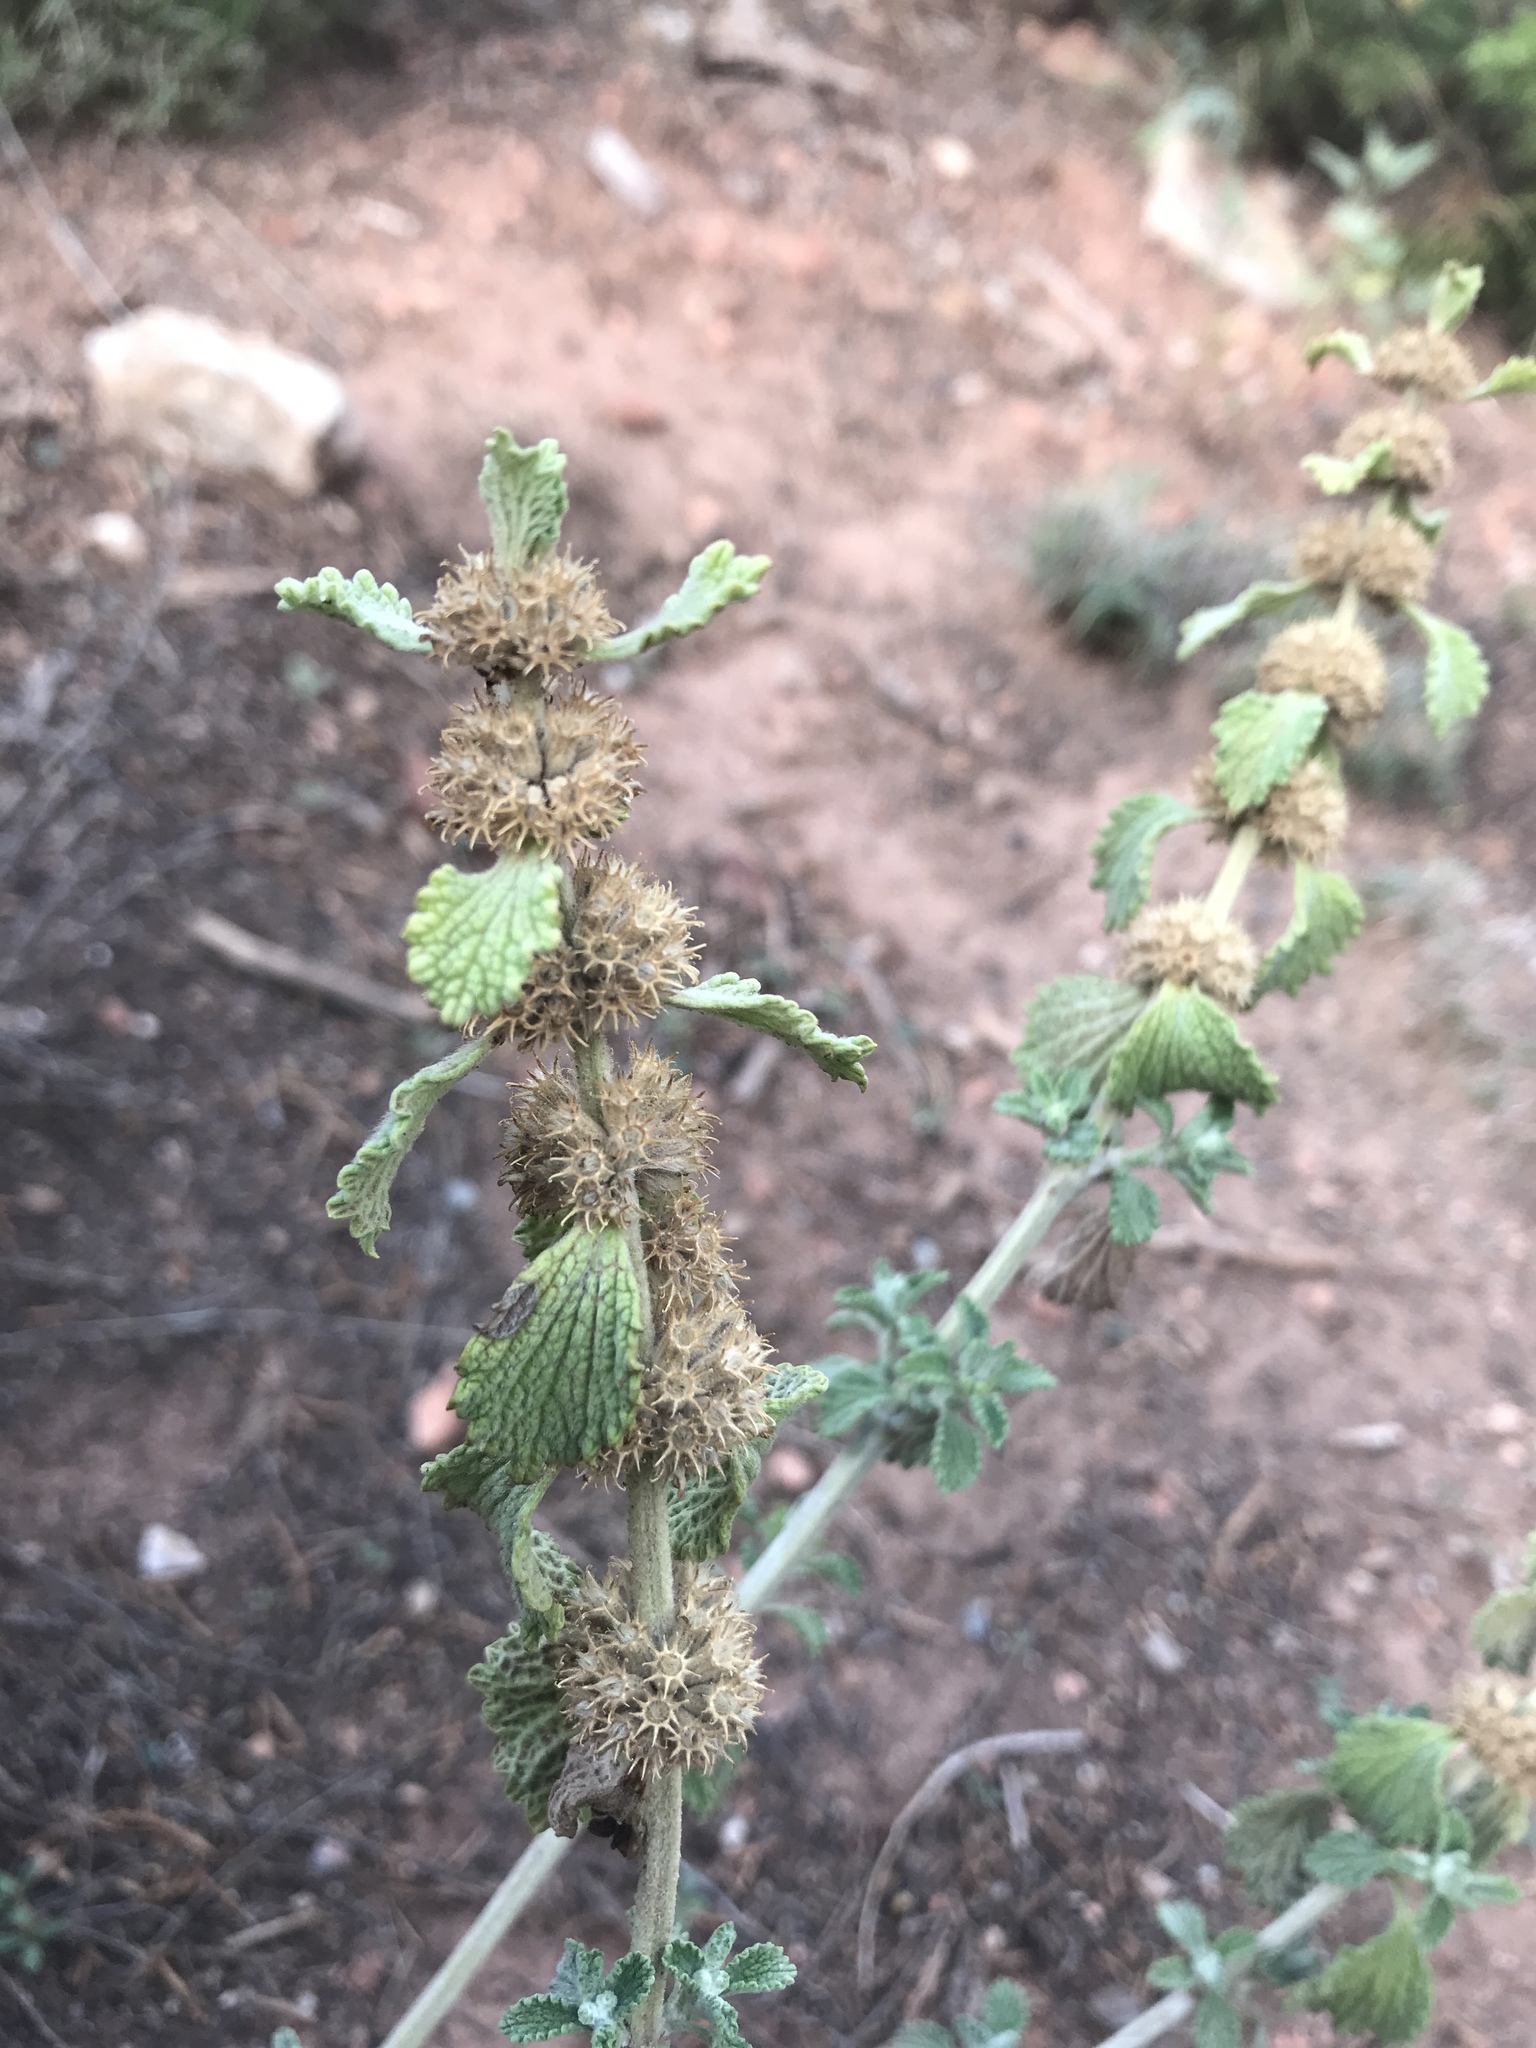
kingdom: Plantae
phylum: Tracheophyta
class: Magnoliopsida
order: Lamiales
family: Lamiaceae
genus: Marrubium
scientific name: Marrubium vulgare
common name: Horehound
